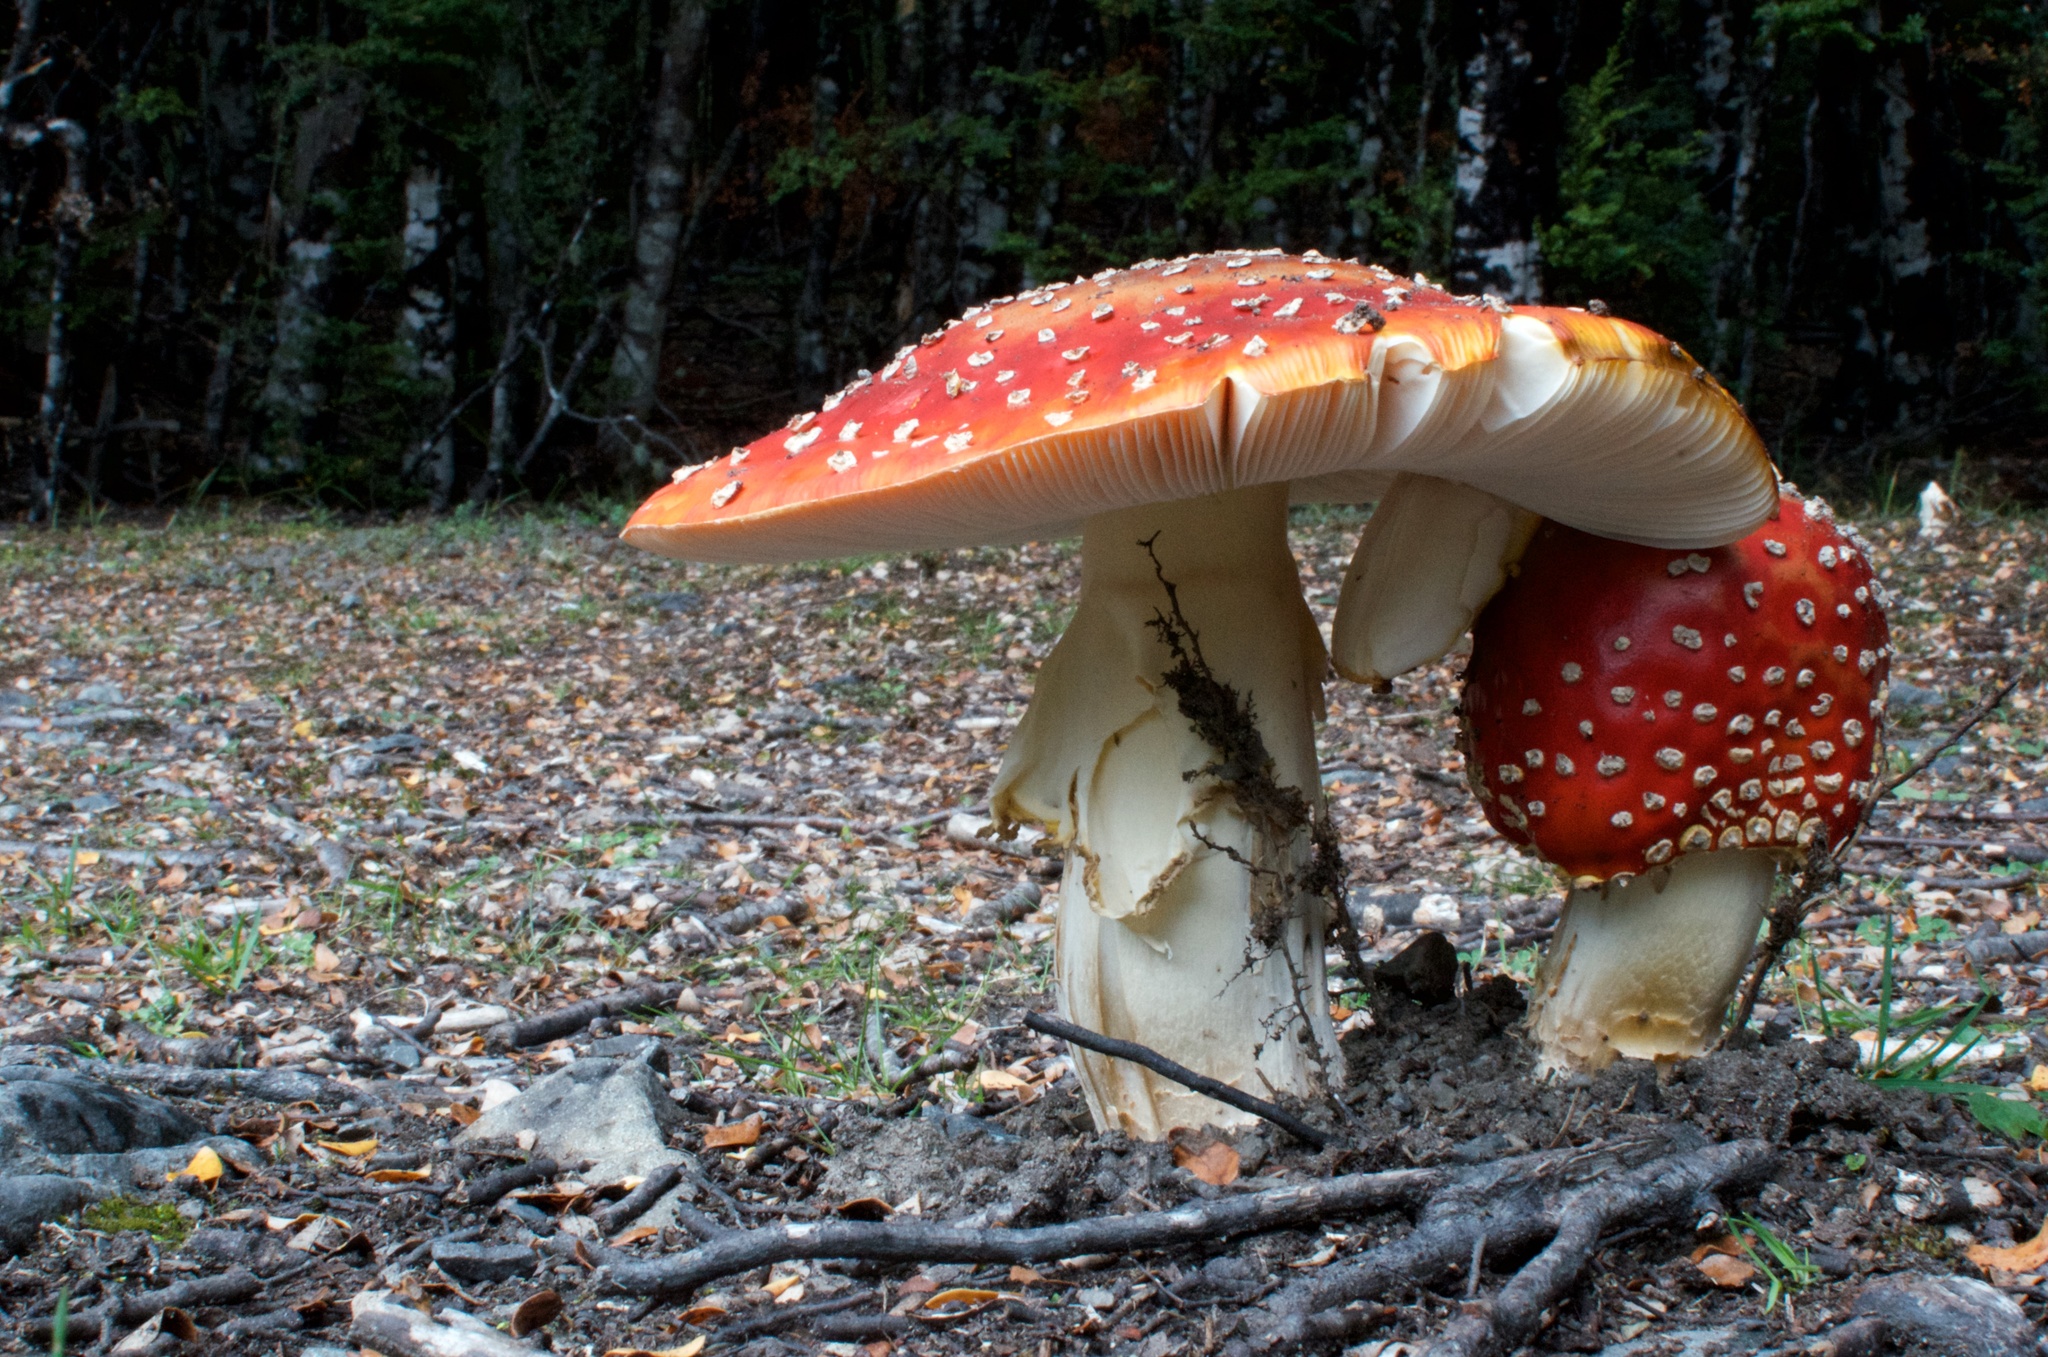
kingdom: Fungi
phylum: Basidiomycota
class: Agaricomycetes
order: Agaricales
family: Amanitaceae
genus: Amanita
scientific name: Amanita muscaria
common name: Fly agaric
